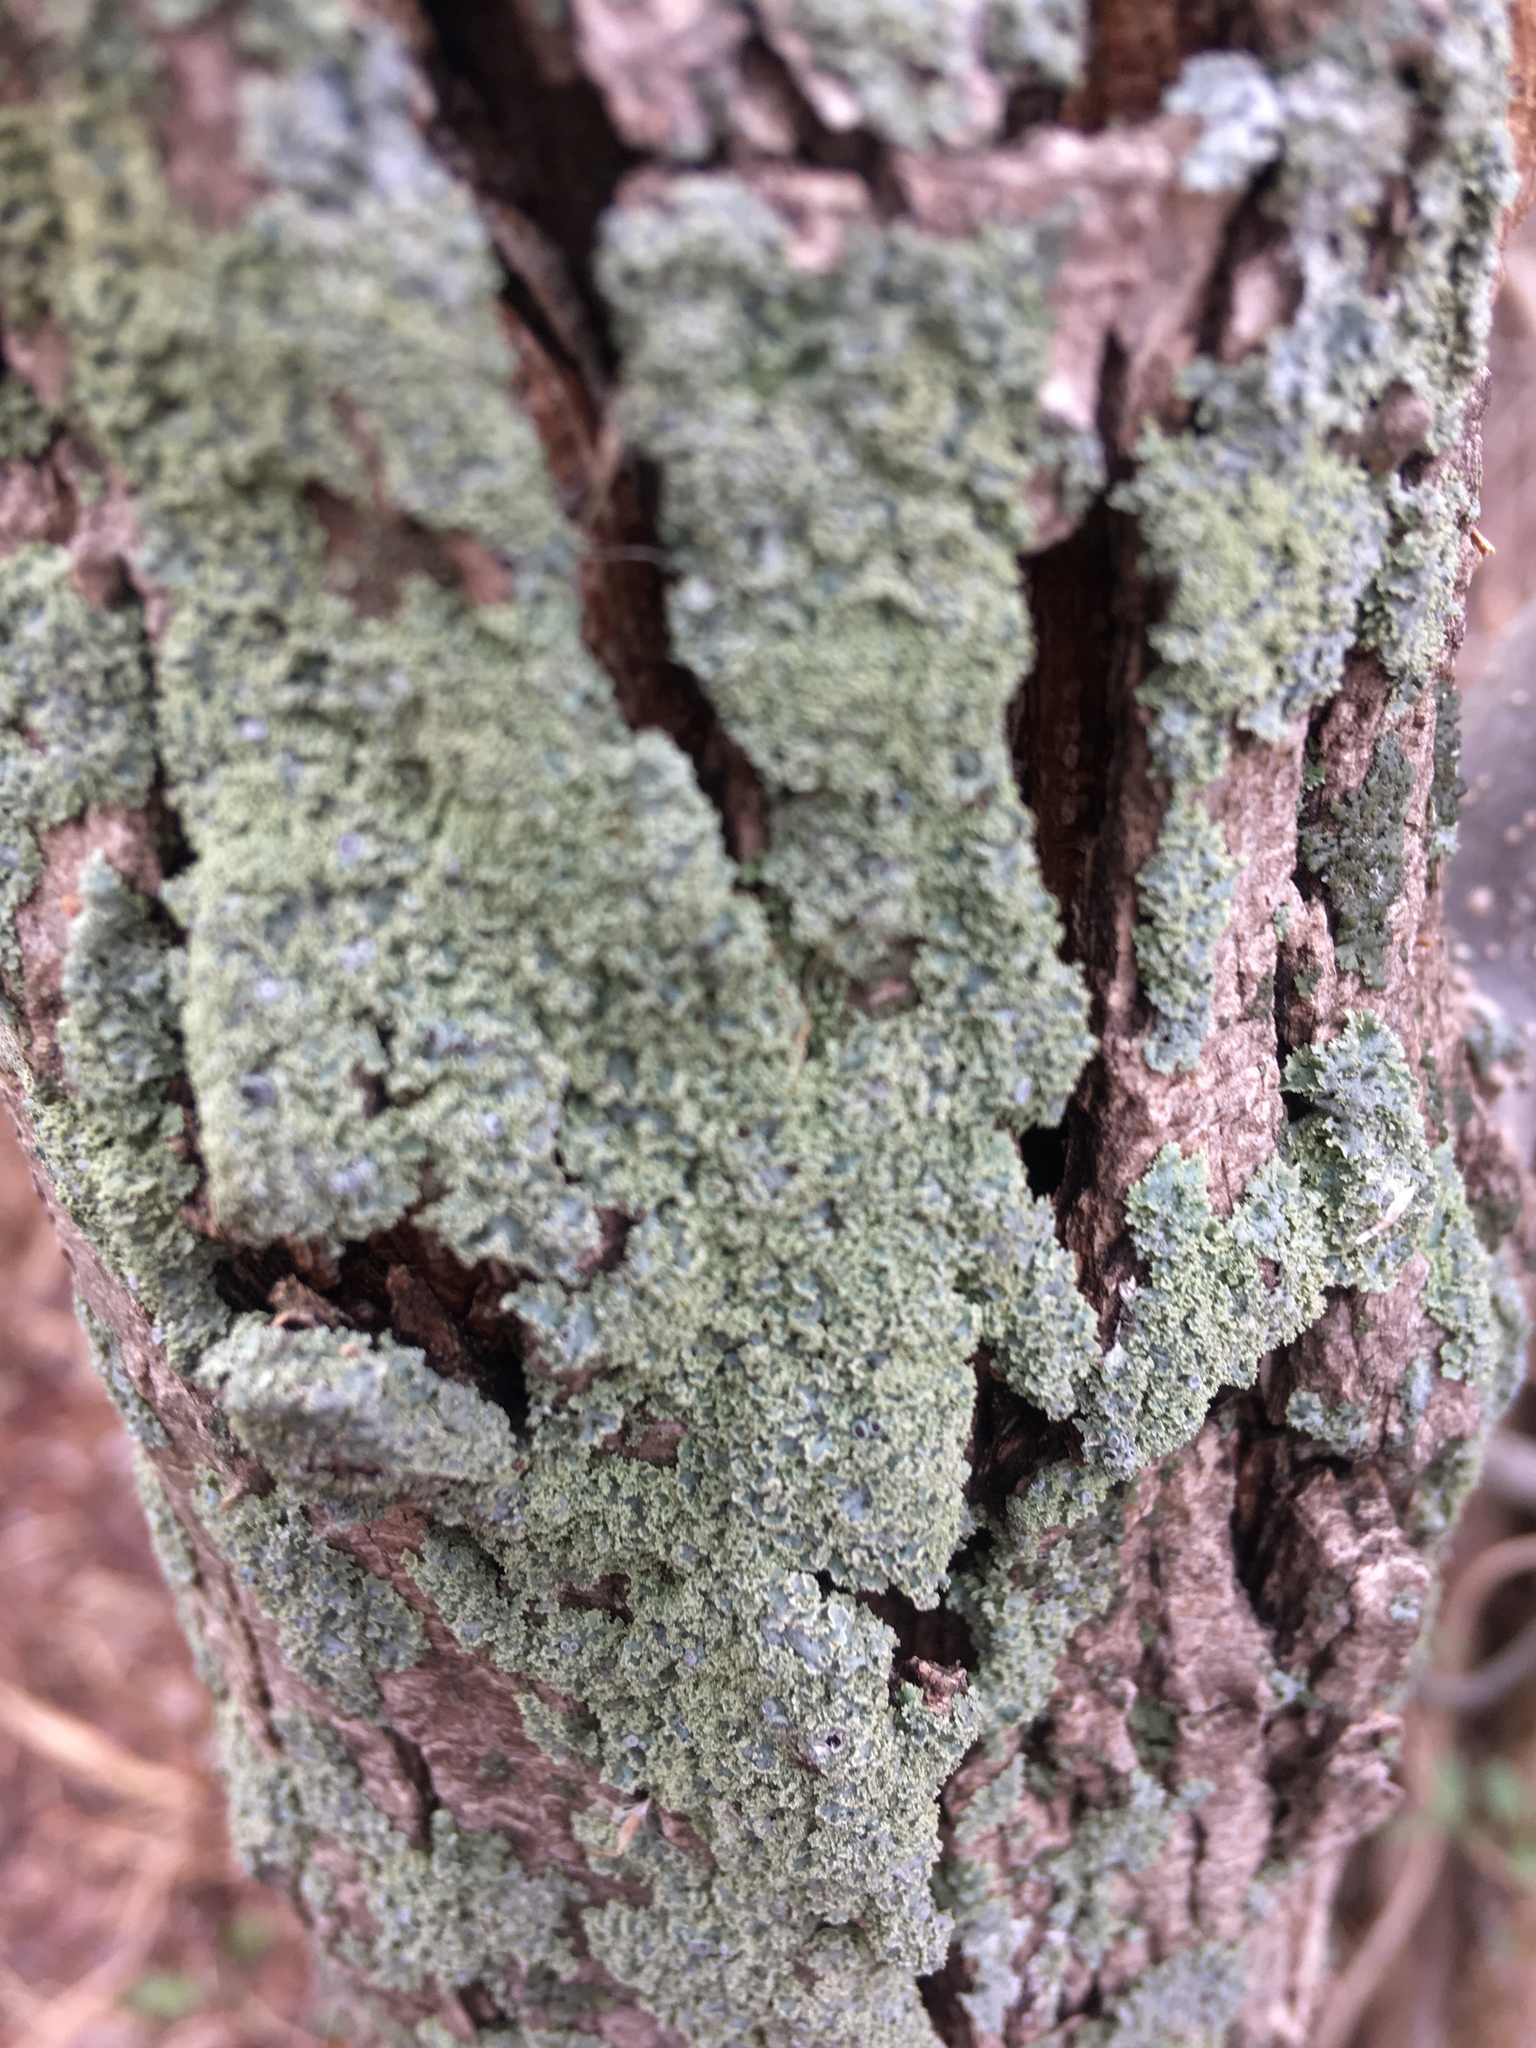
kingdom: Fungi
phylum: Ascomycota
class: Lecanoromycetes
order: Caliciales
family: Physciaceae
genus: Physcia
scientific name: Physcia millegrana
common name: Rosette lichen
